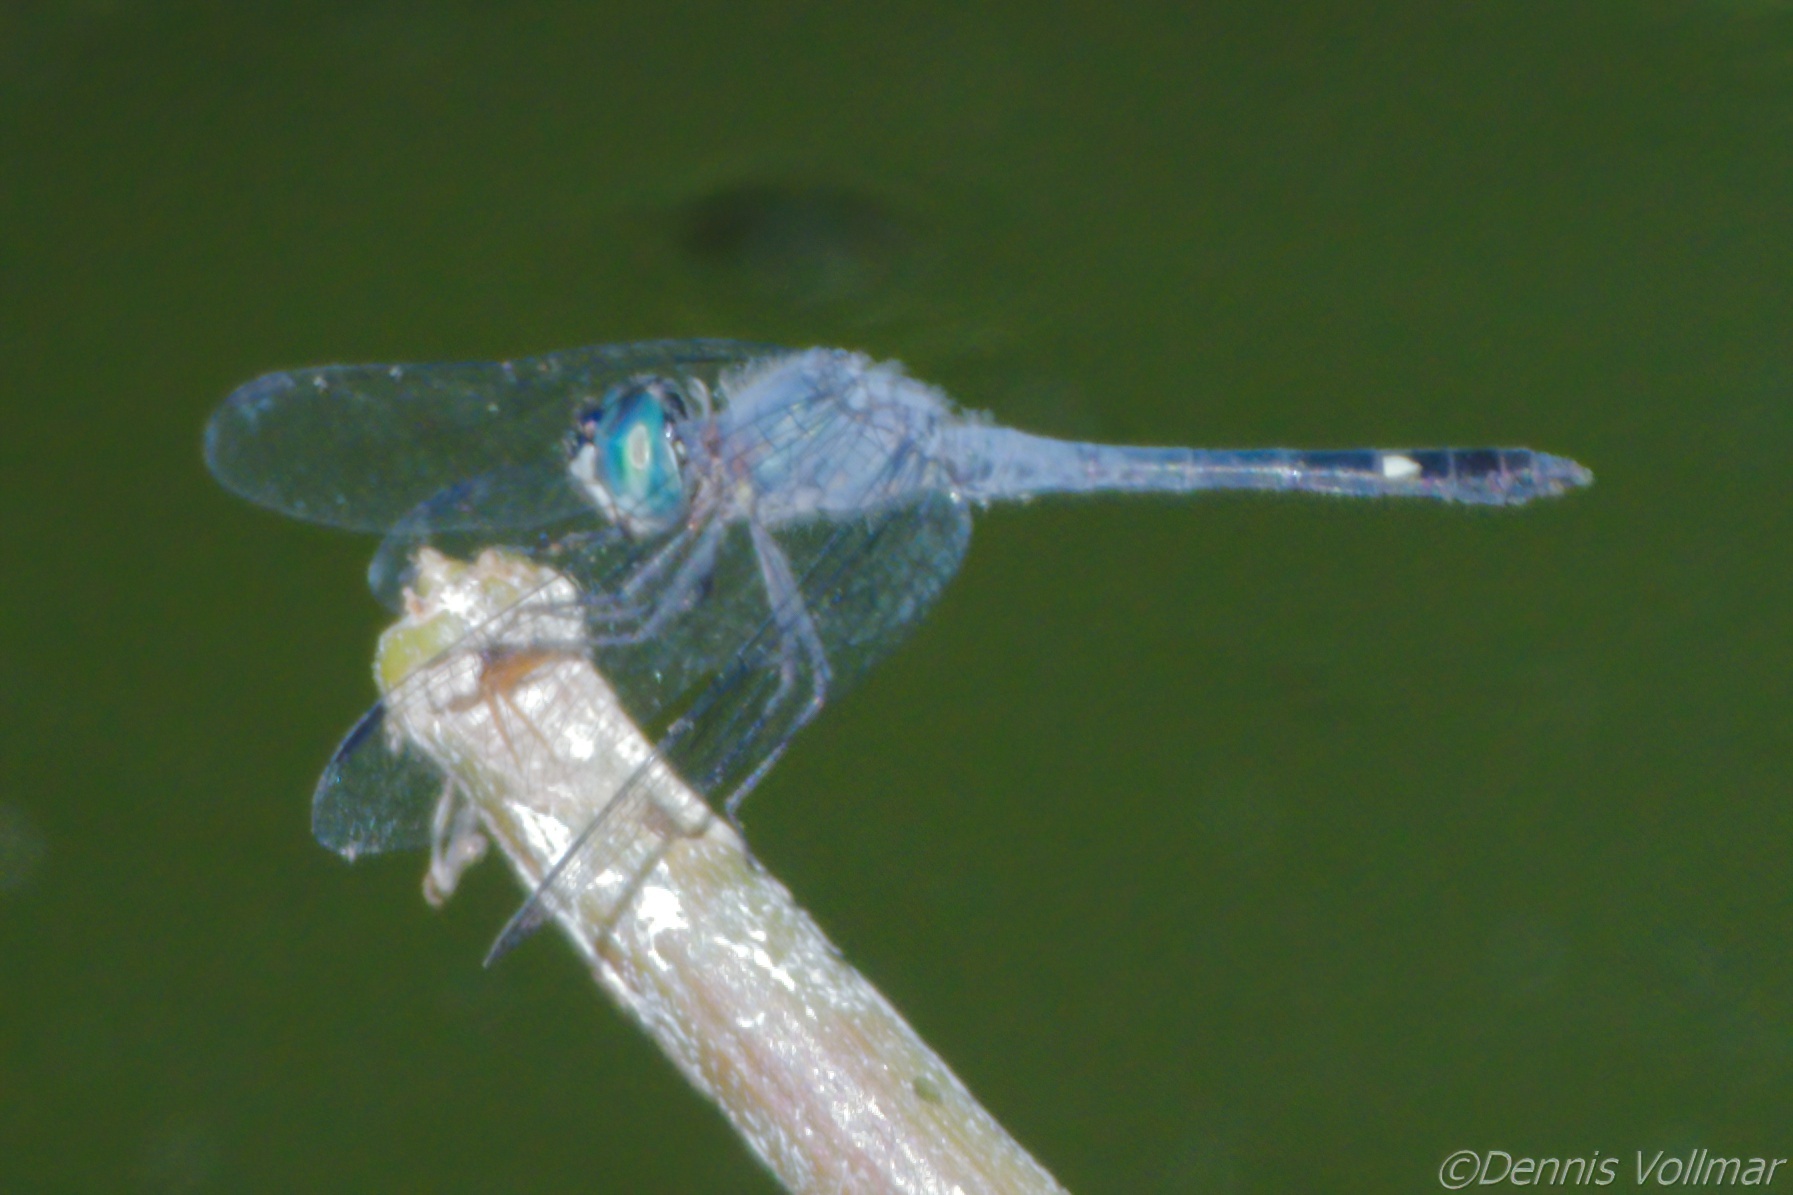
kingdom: Animalia
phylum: Arthropoda
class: Insecta
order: Odonata
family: Libellulidae
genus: Micrathyria
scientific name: Micrathyria aequalis
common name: Spot-tailed dasher
